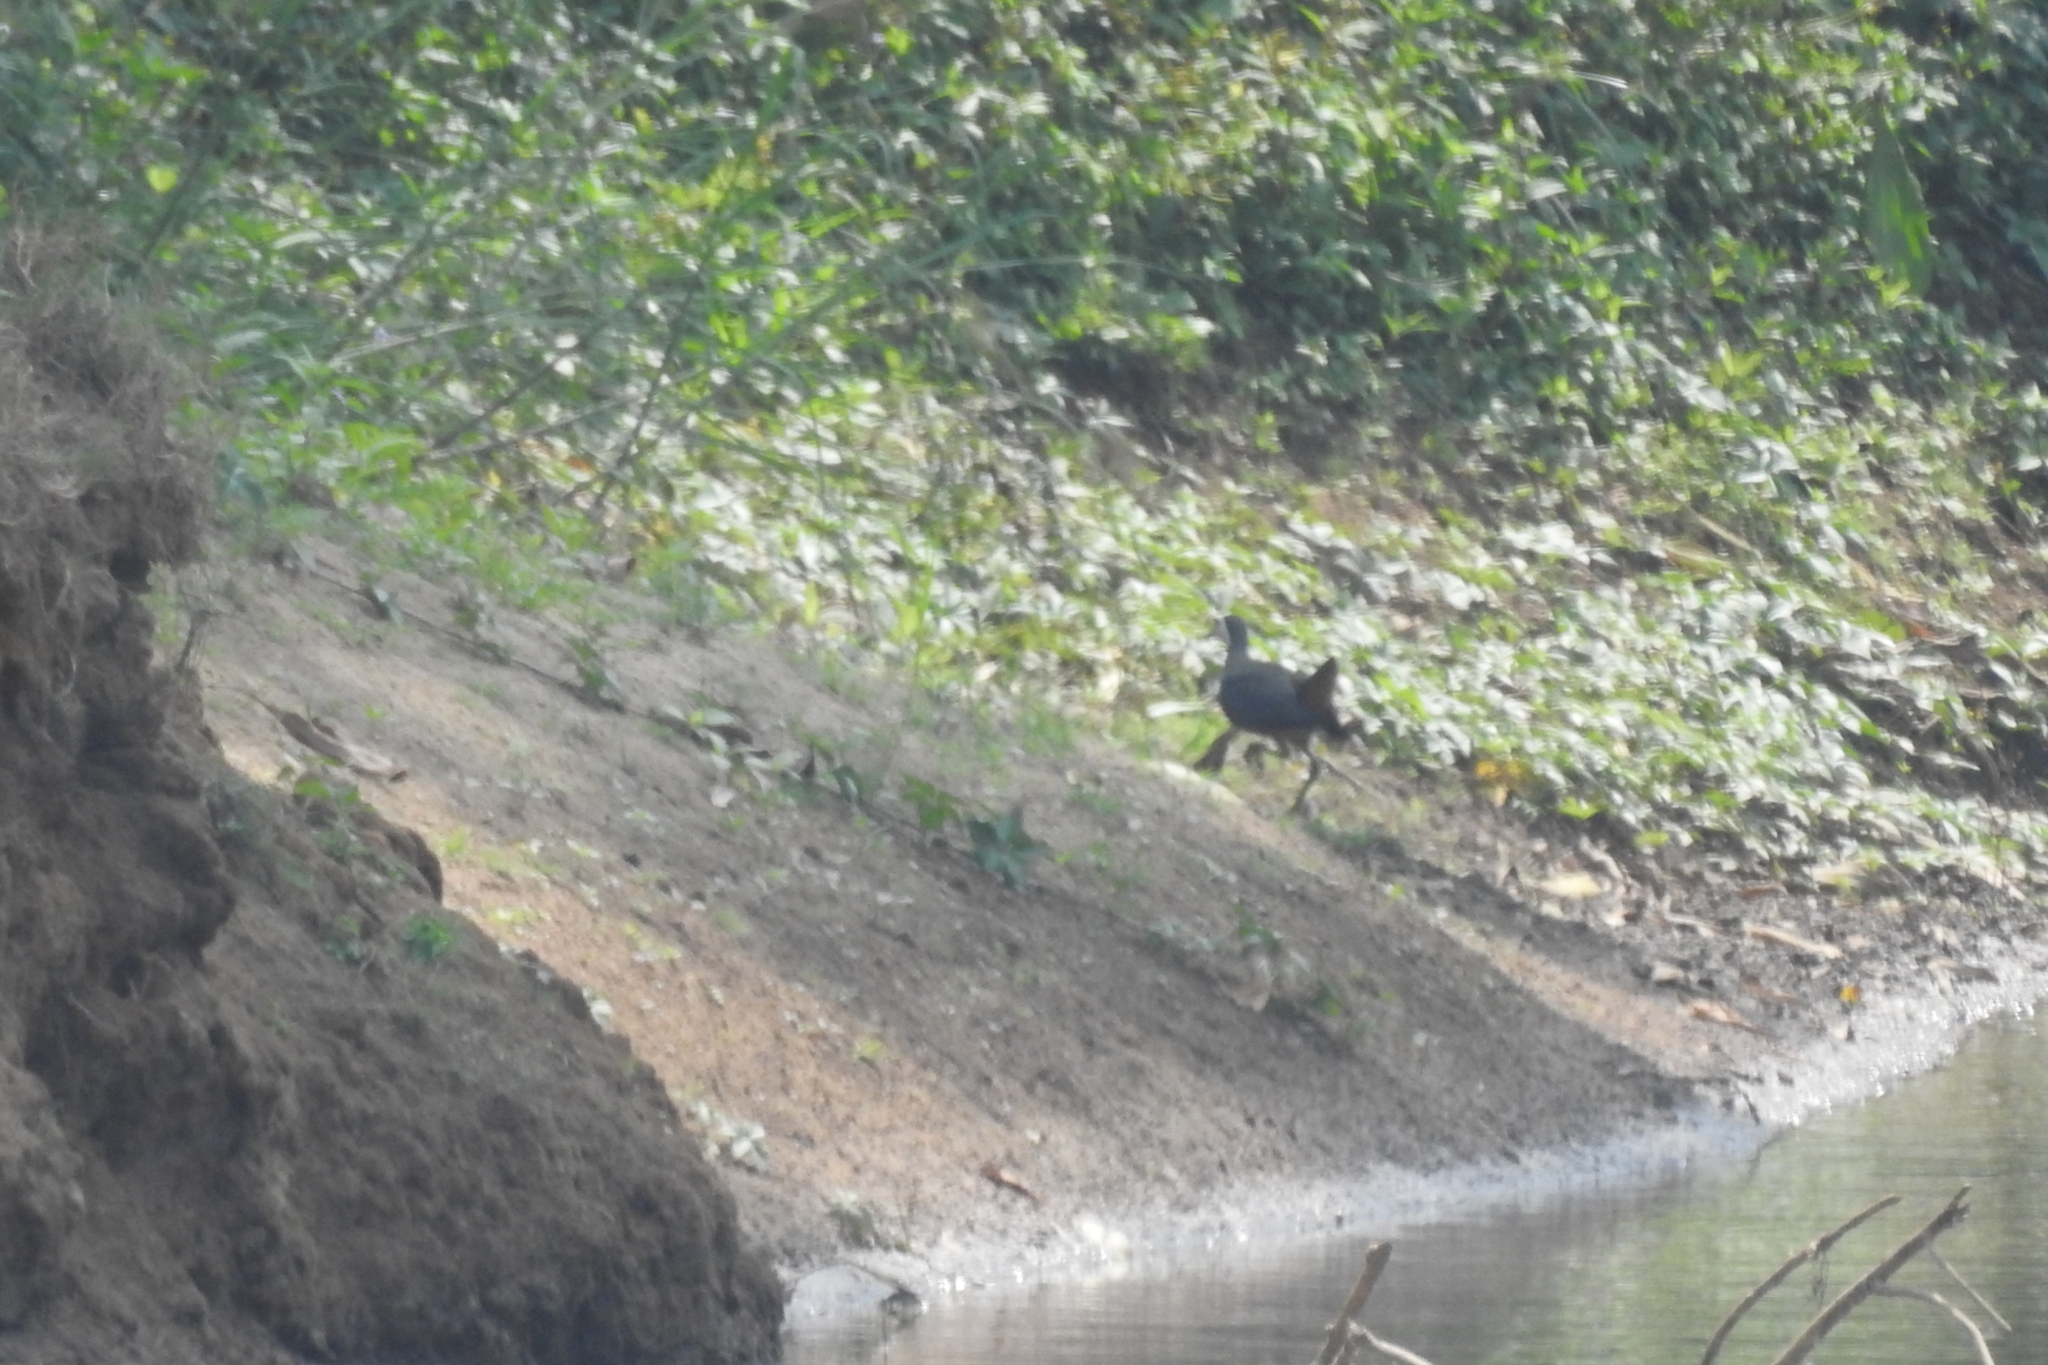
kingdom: Animalia
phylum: Chordata
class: Aves
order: Gruiformes
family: Rallidae
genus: Amaurornis
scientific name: Amaurornis phoenicurus
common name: White-breasted waterhen
